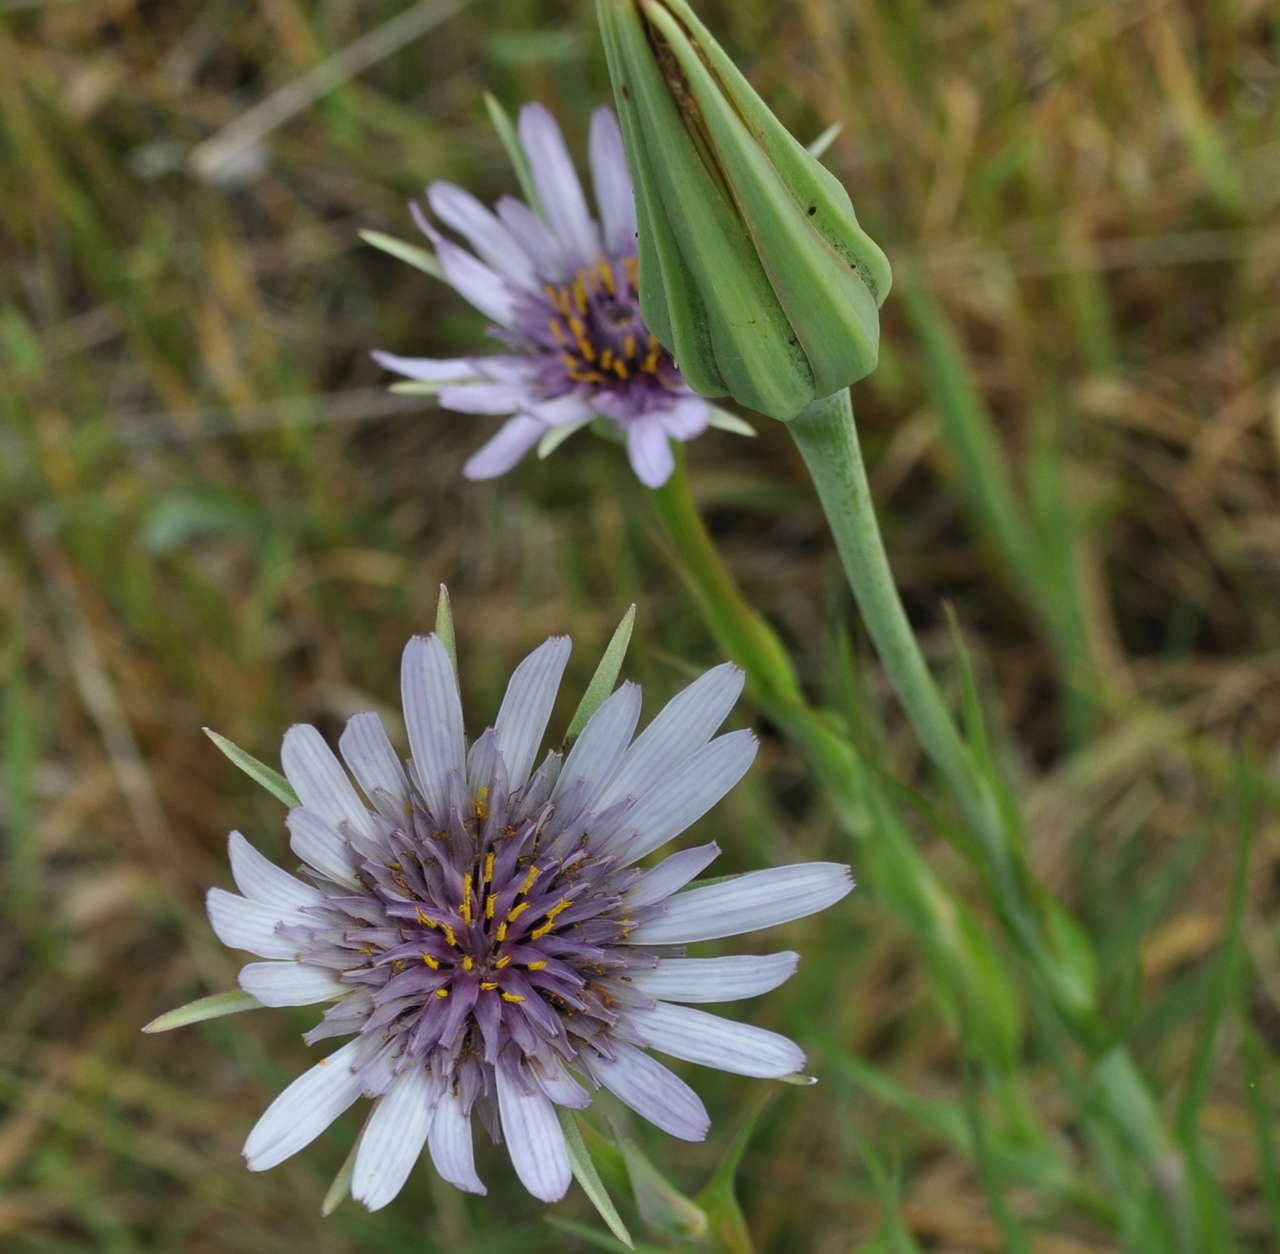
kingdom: Plantae
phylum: Tracheophyta
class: Magnoliopsida
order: Asterales
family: Asteraceae
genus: Tragopogon
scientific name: Tragopogon porrifolius
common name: Salsify
